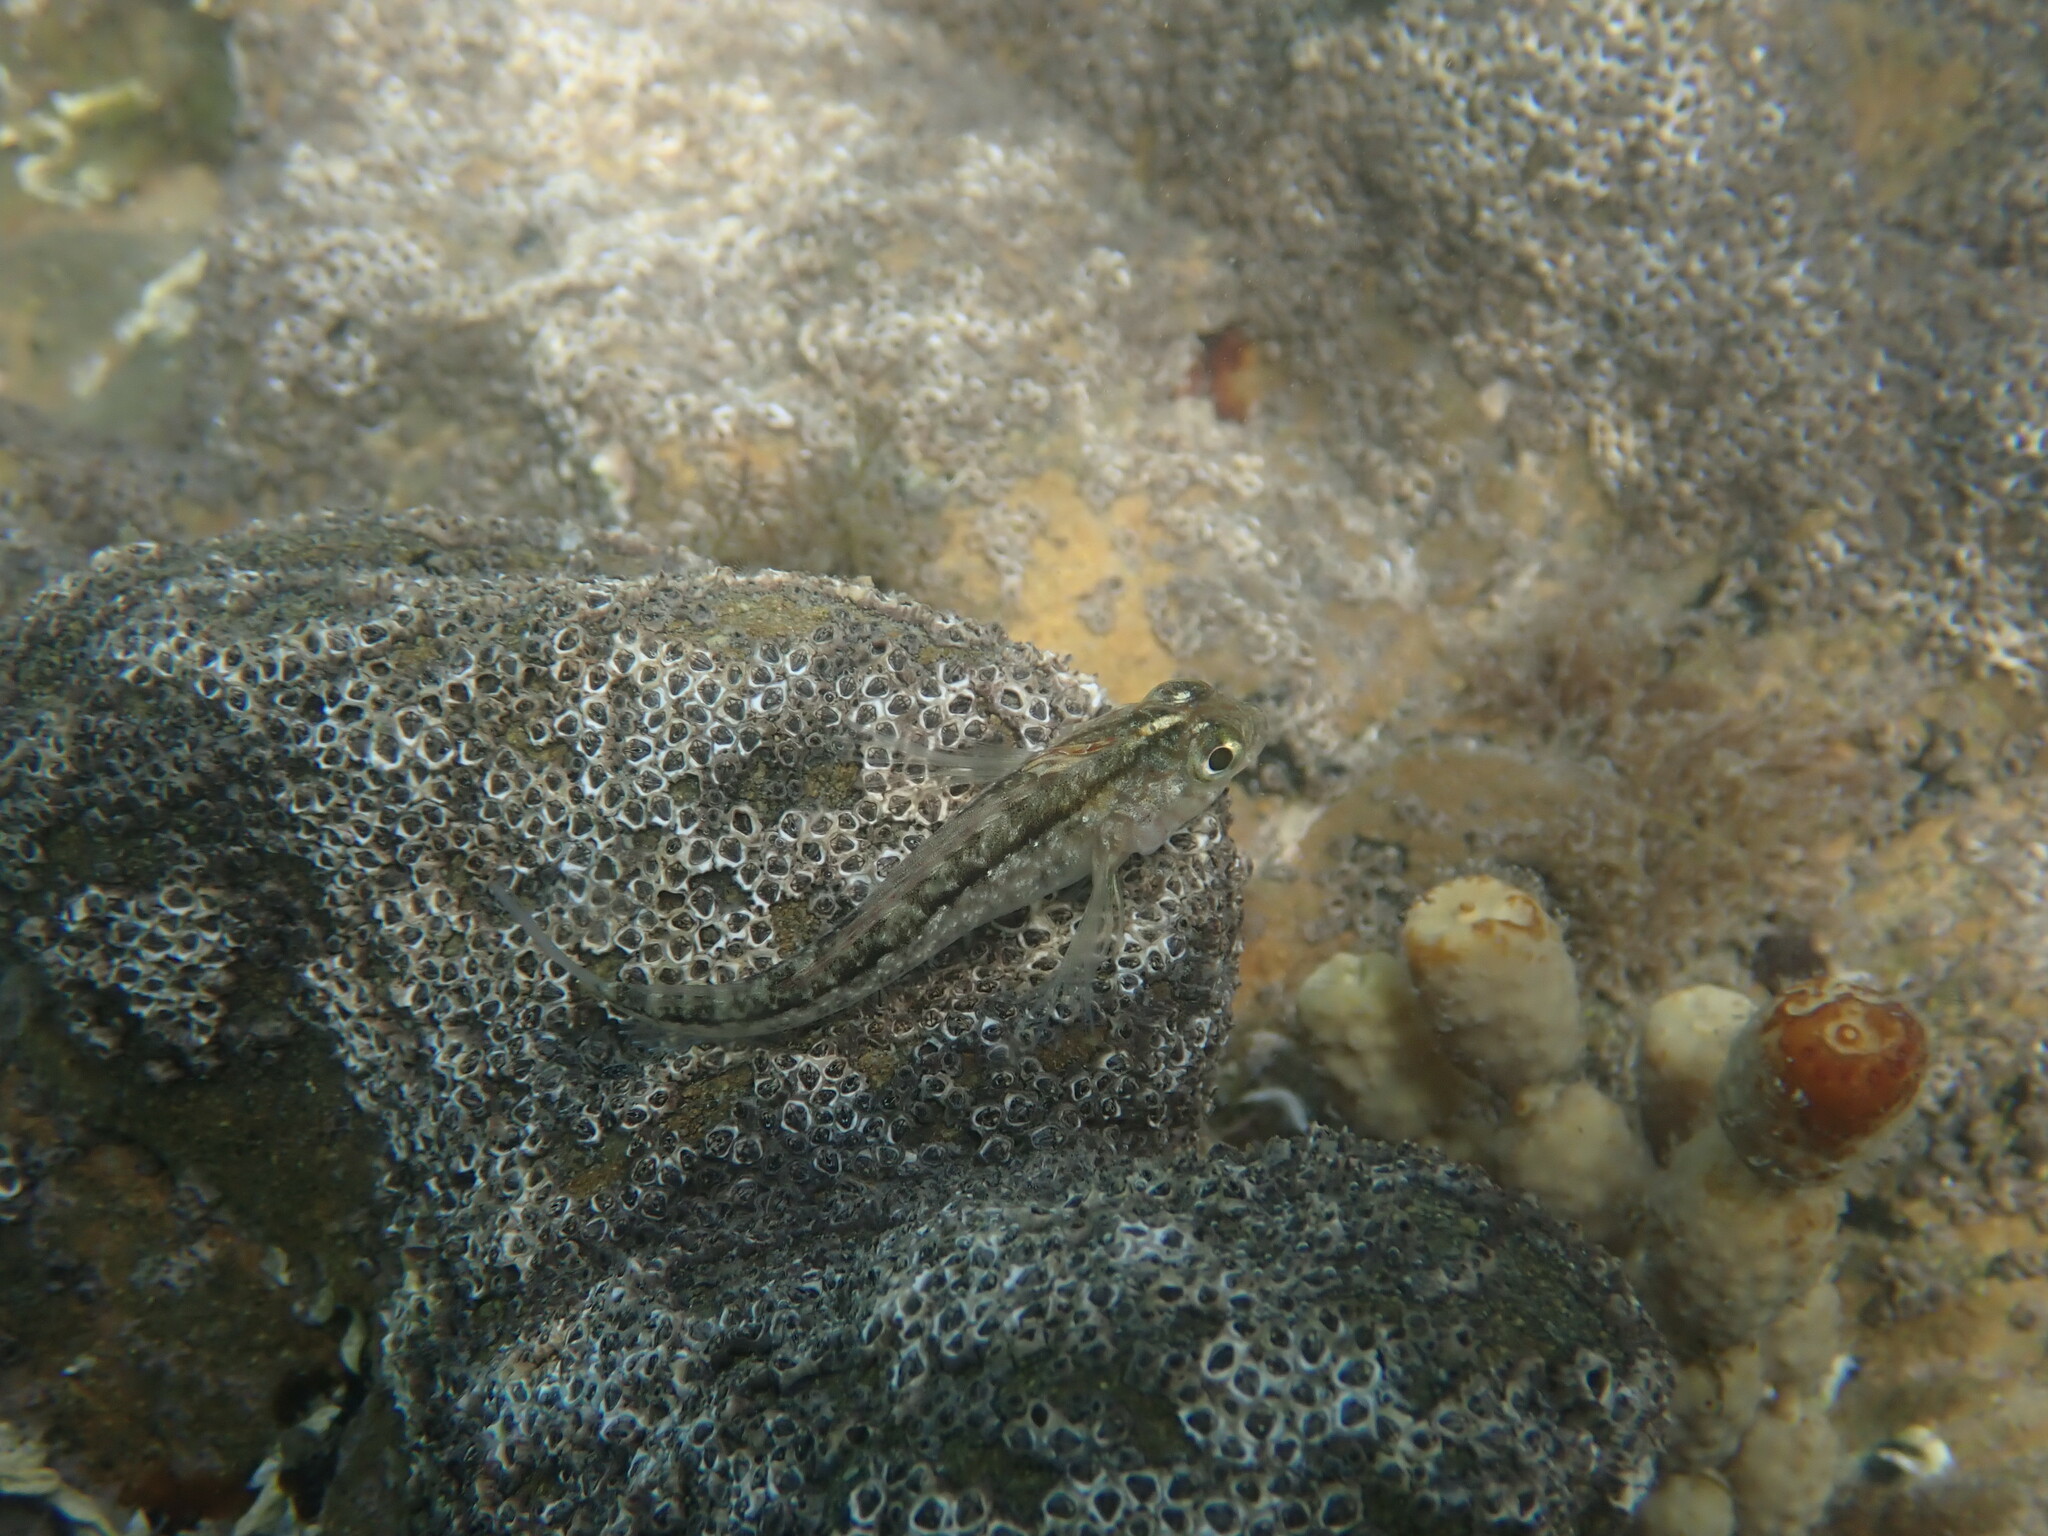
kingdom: Animalia
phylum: Chordata
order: Perciformes
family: Tripterygiidae
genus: Forsterygion
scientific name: Forsterygion lapillum
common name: Common triplefin
